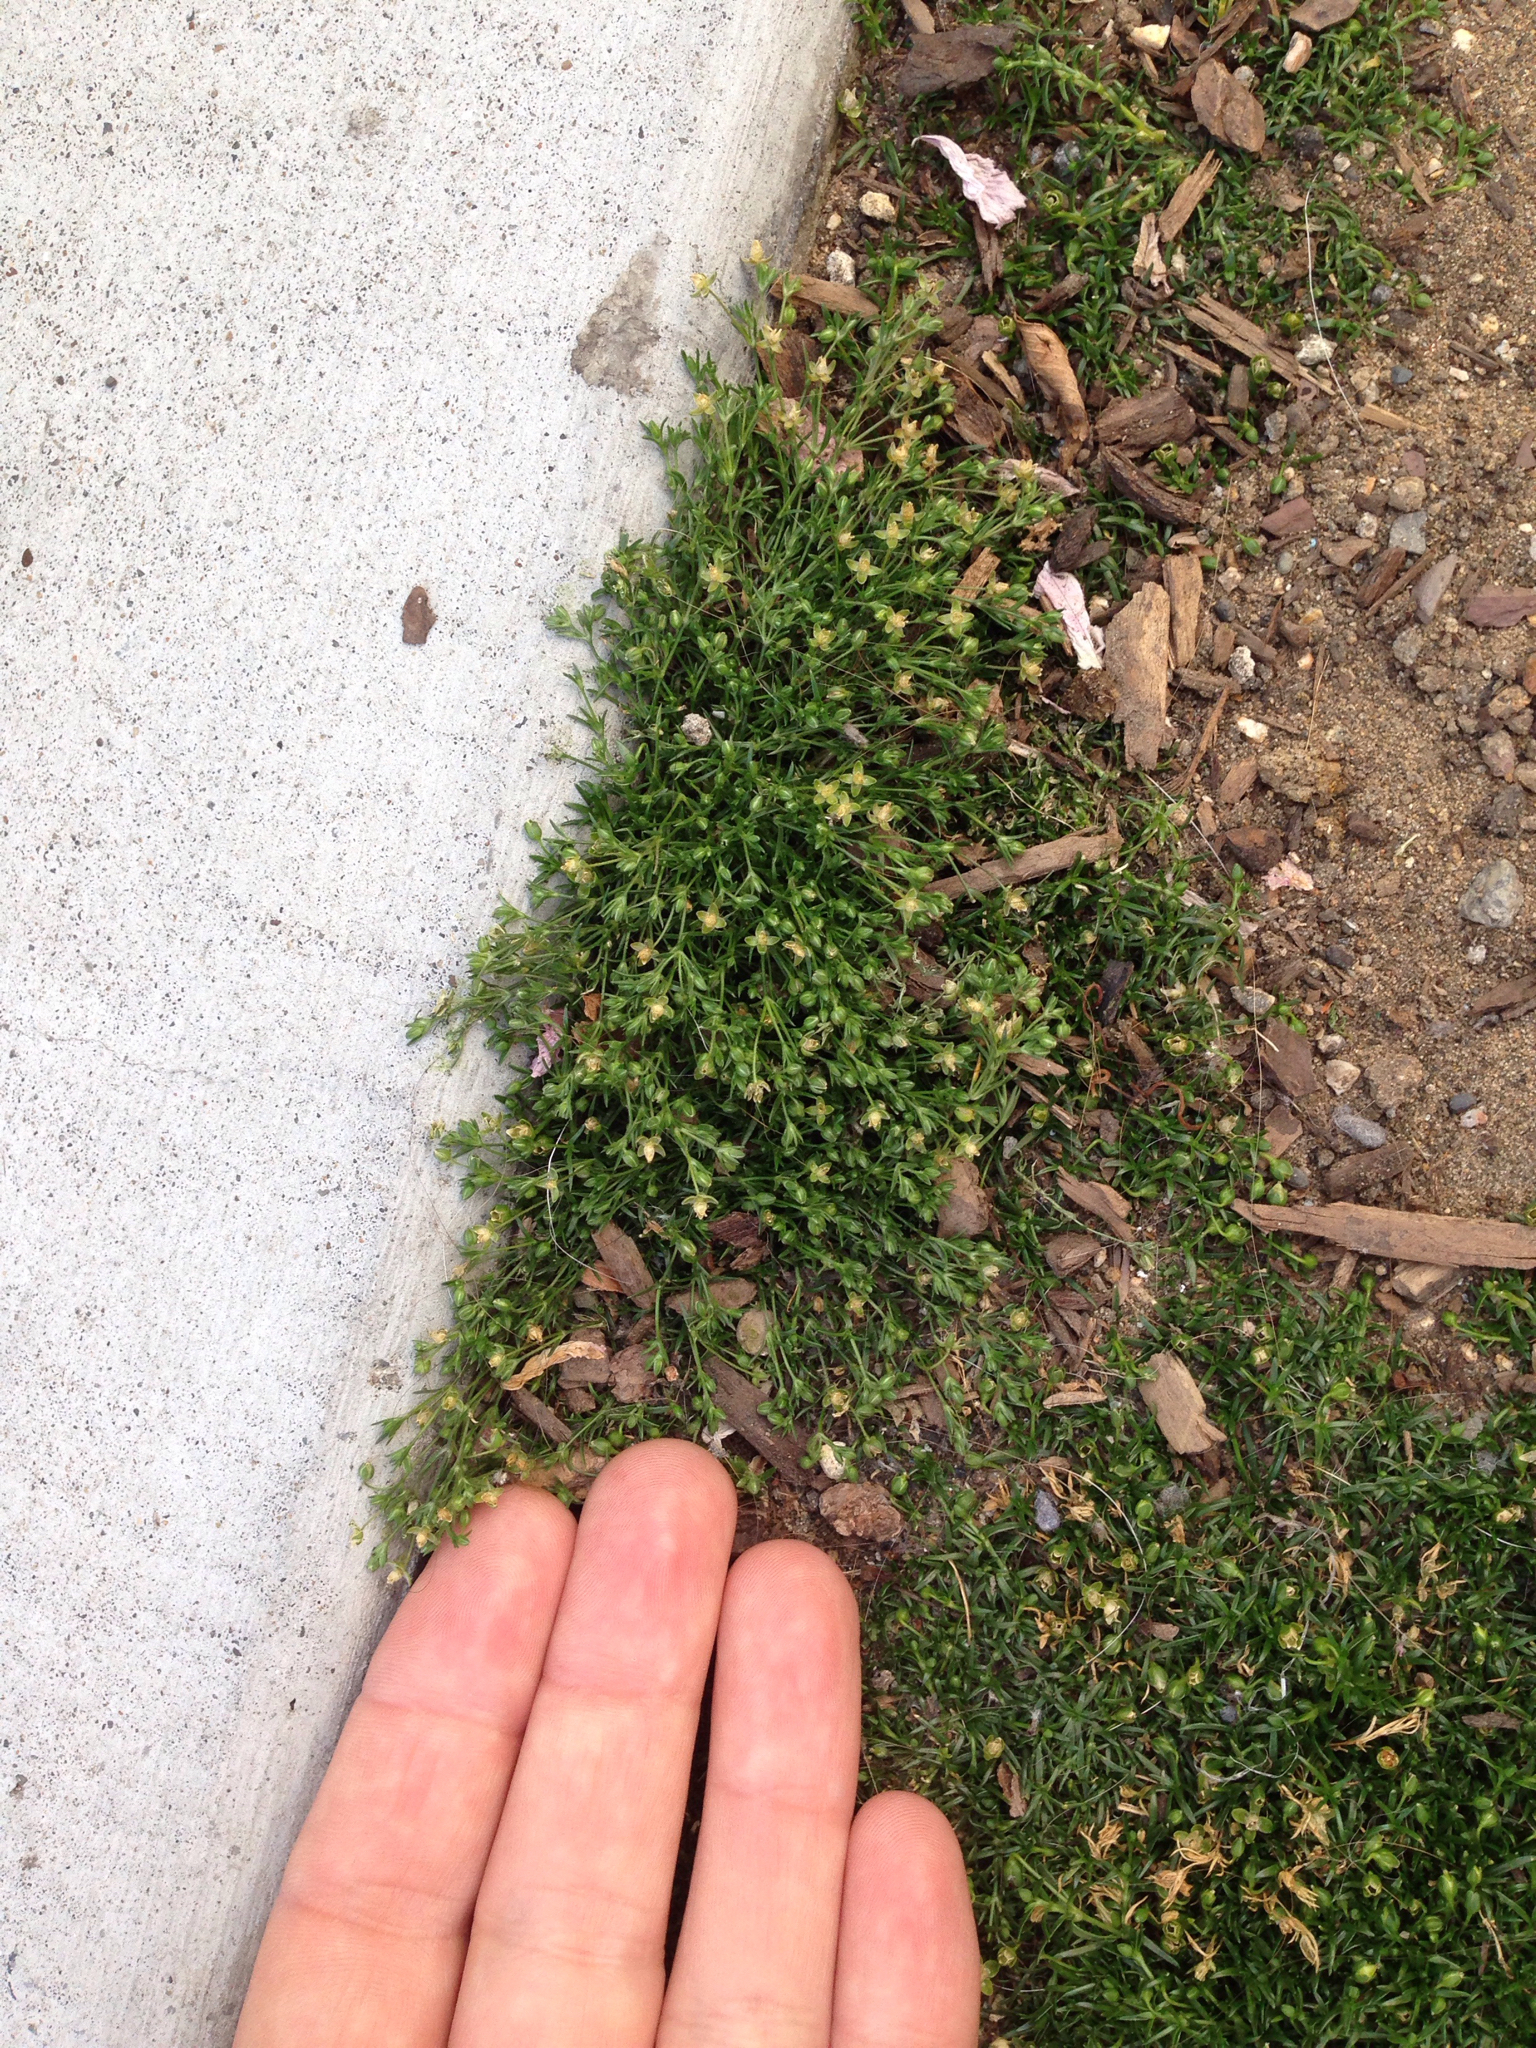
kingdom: Plantae
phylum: Tracheophyta
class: Magnoliopsida
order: Caryophyllales
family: Caryophyllaceae
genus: Sagina
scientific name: Sagina apetala
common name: Annual pearlwort
